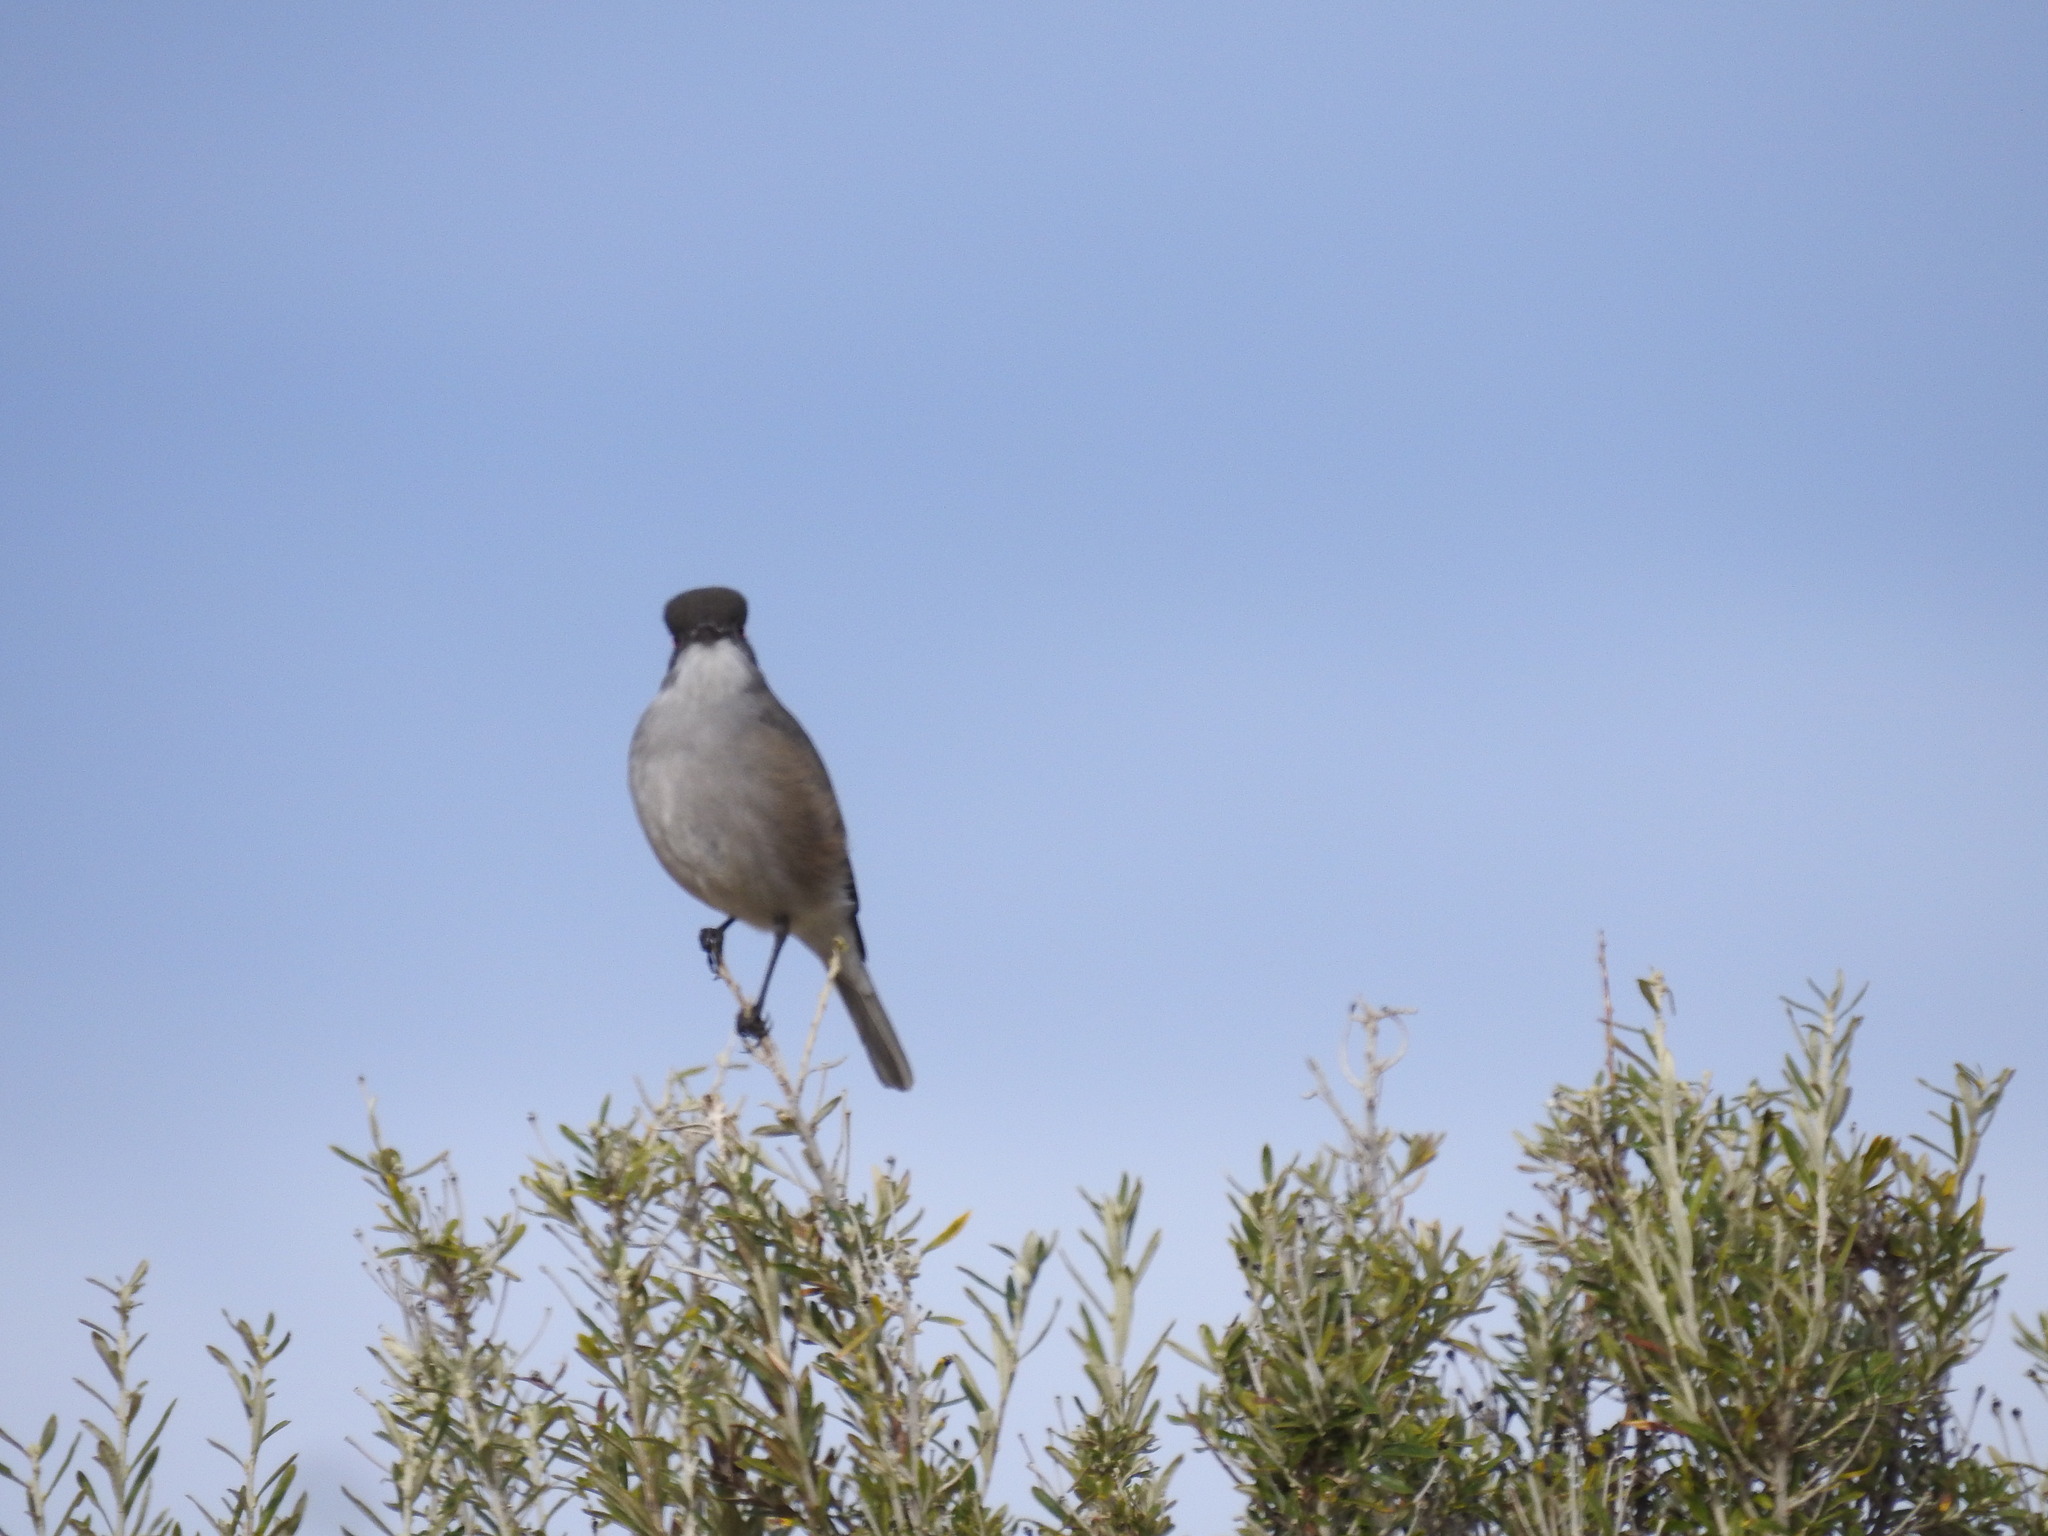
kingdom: Animalia
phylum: Chordata
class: Aves
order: Passeriformes
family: Tyrannidae
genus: Xolmis
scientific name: Xolmis pyrope
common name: Fire-eyed diucon
